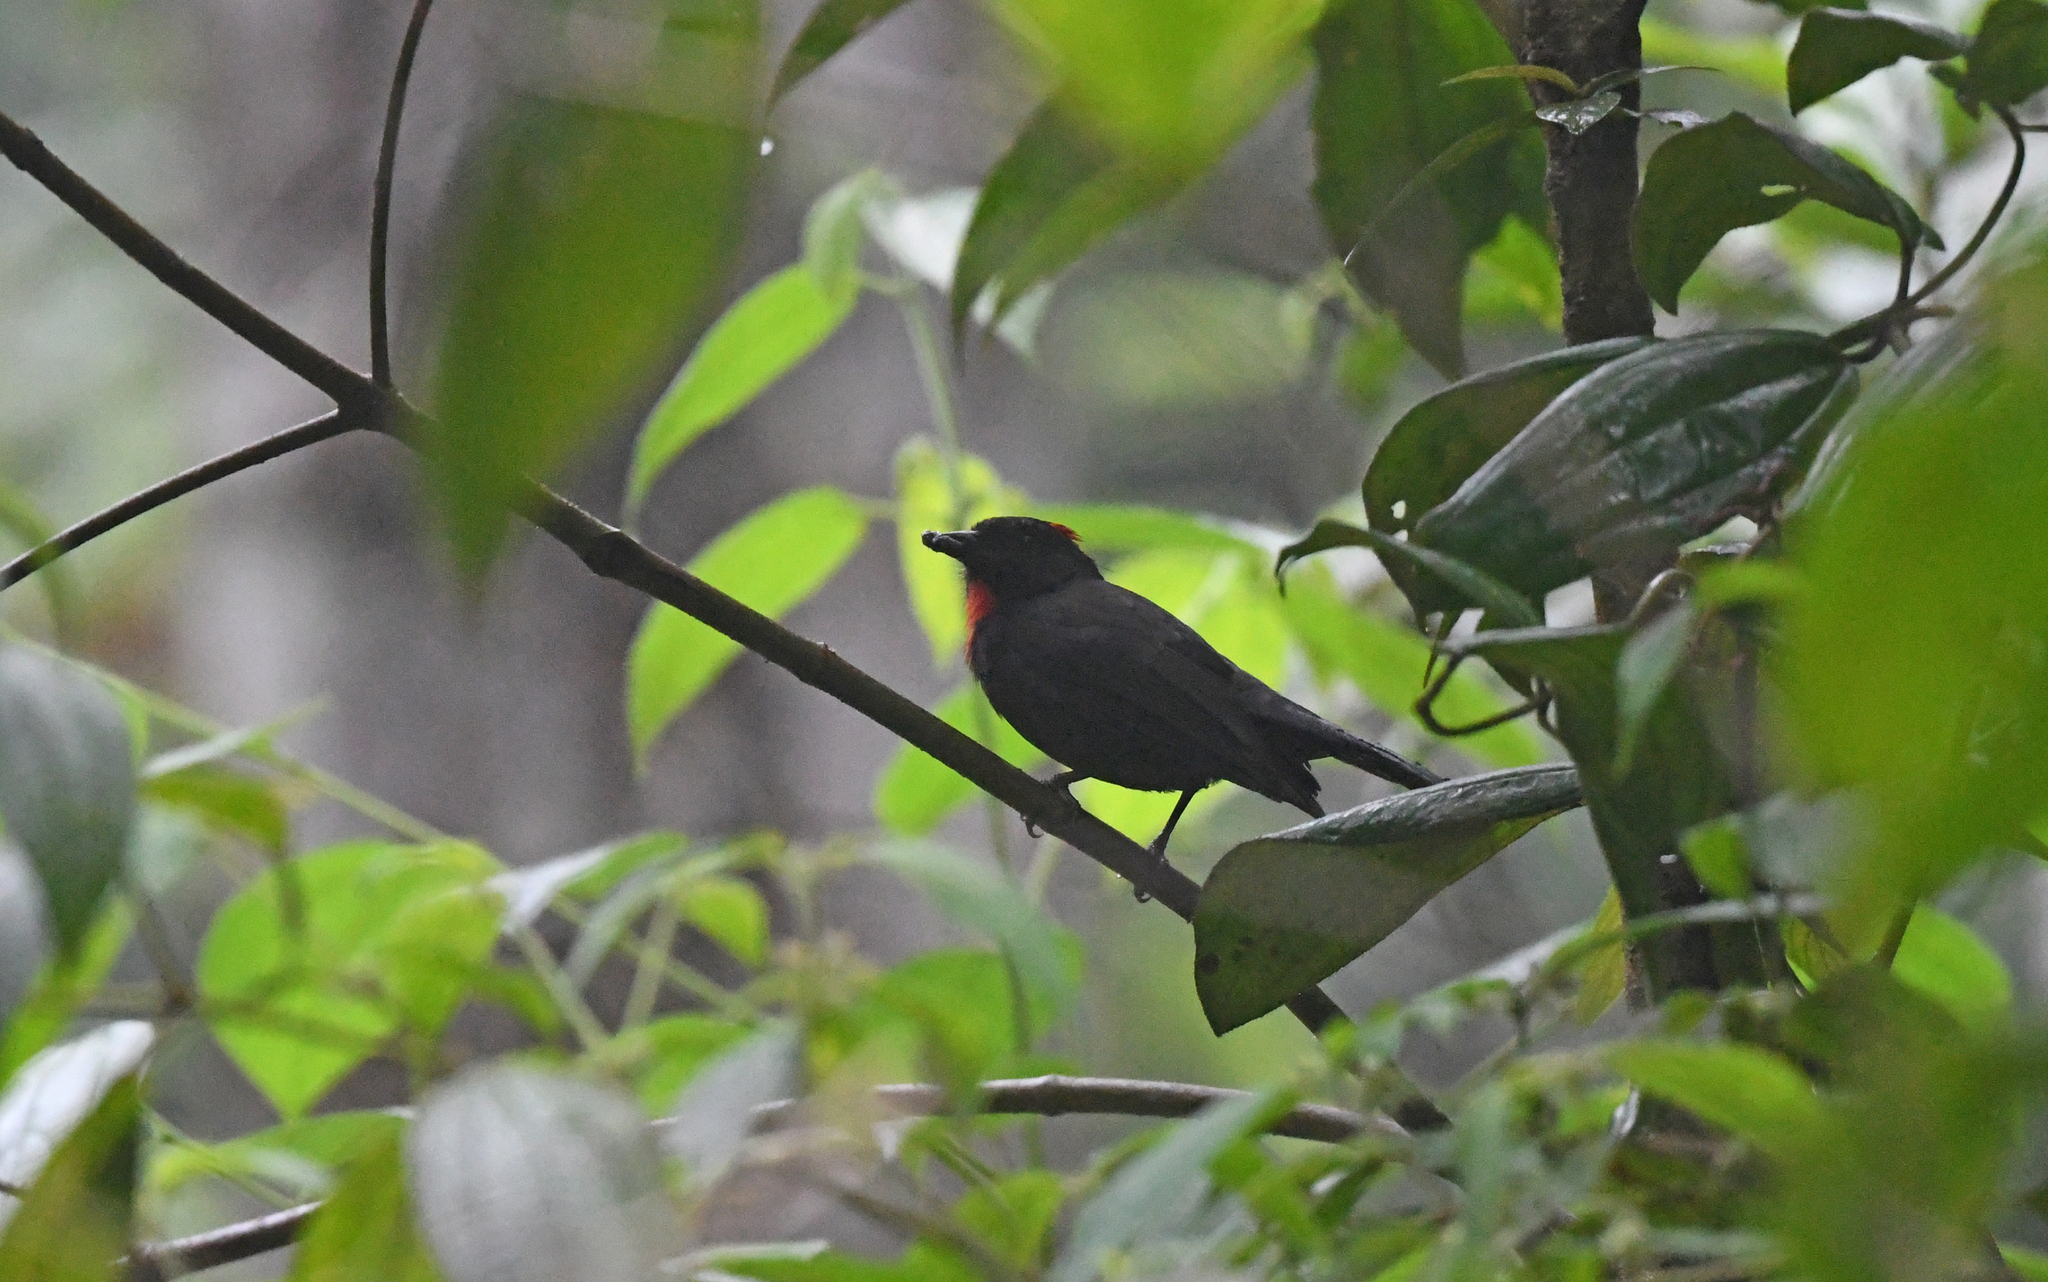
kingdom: Animalia
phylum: Chordata
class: Aves
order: Passeriformes
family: Cardinalidae
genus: Habia
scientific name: Habia gutturalis
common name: Sooty ant tanager
